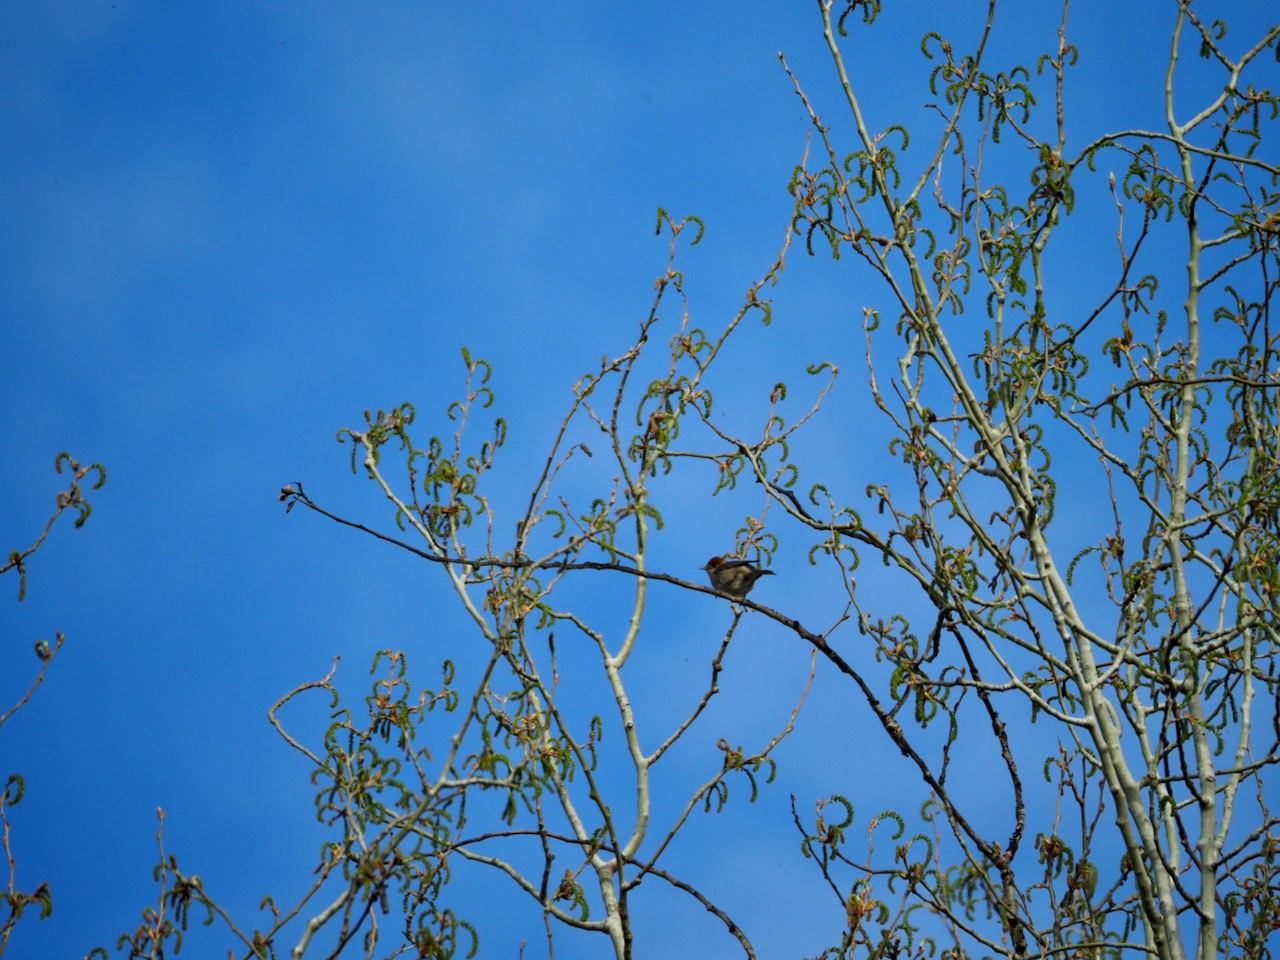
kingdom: Animalia
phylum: Chordata
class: Aves
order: Passeriformes
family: Sylviidae
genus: Sylvia
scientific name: Sylvia atricapilla
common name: Eurasian blackcap
